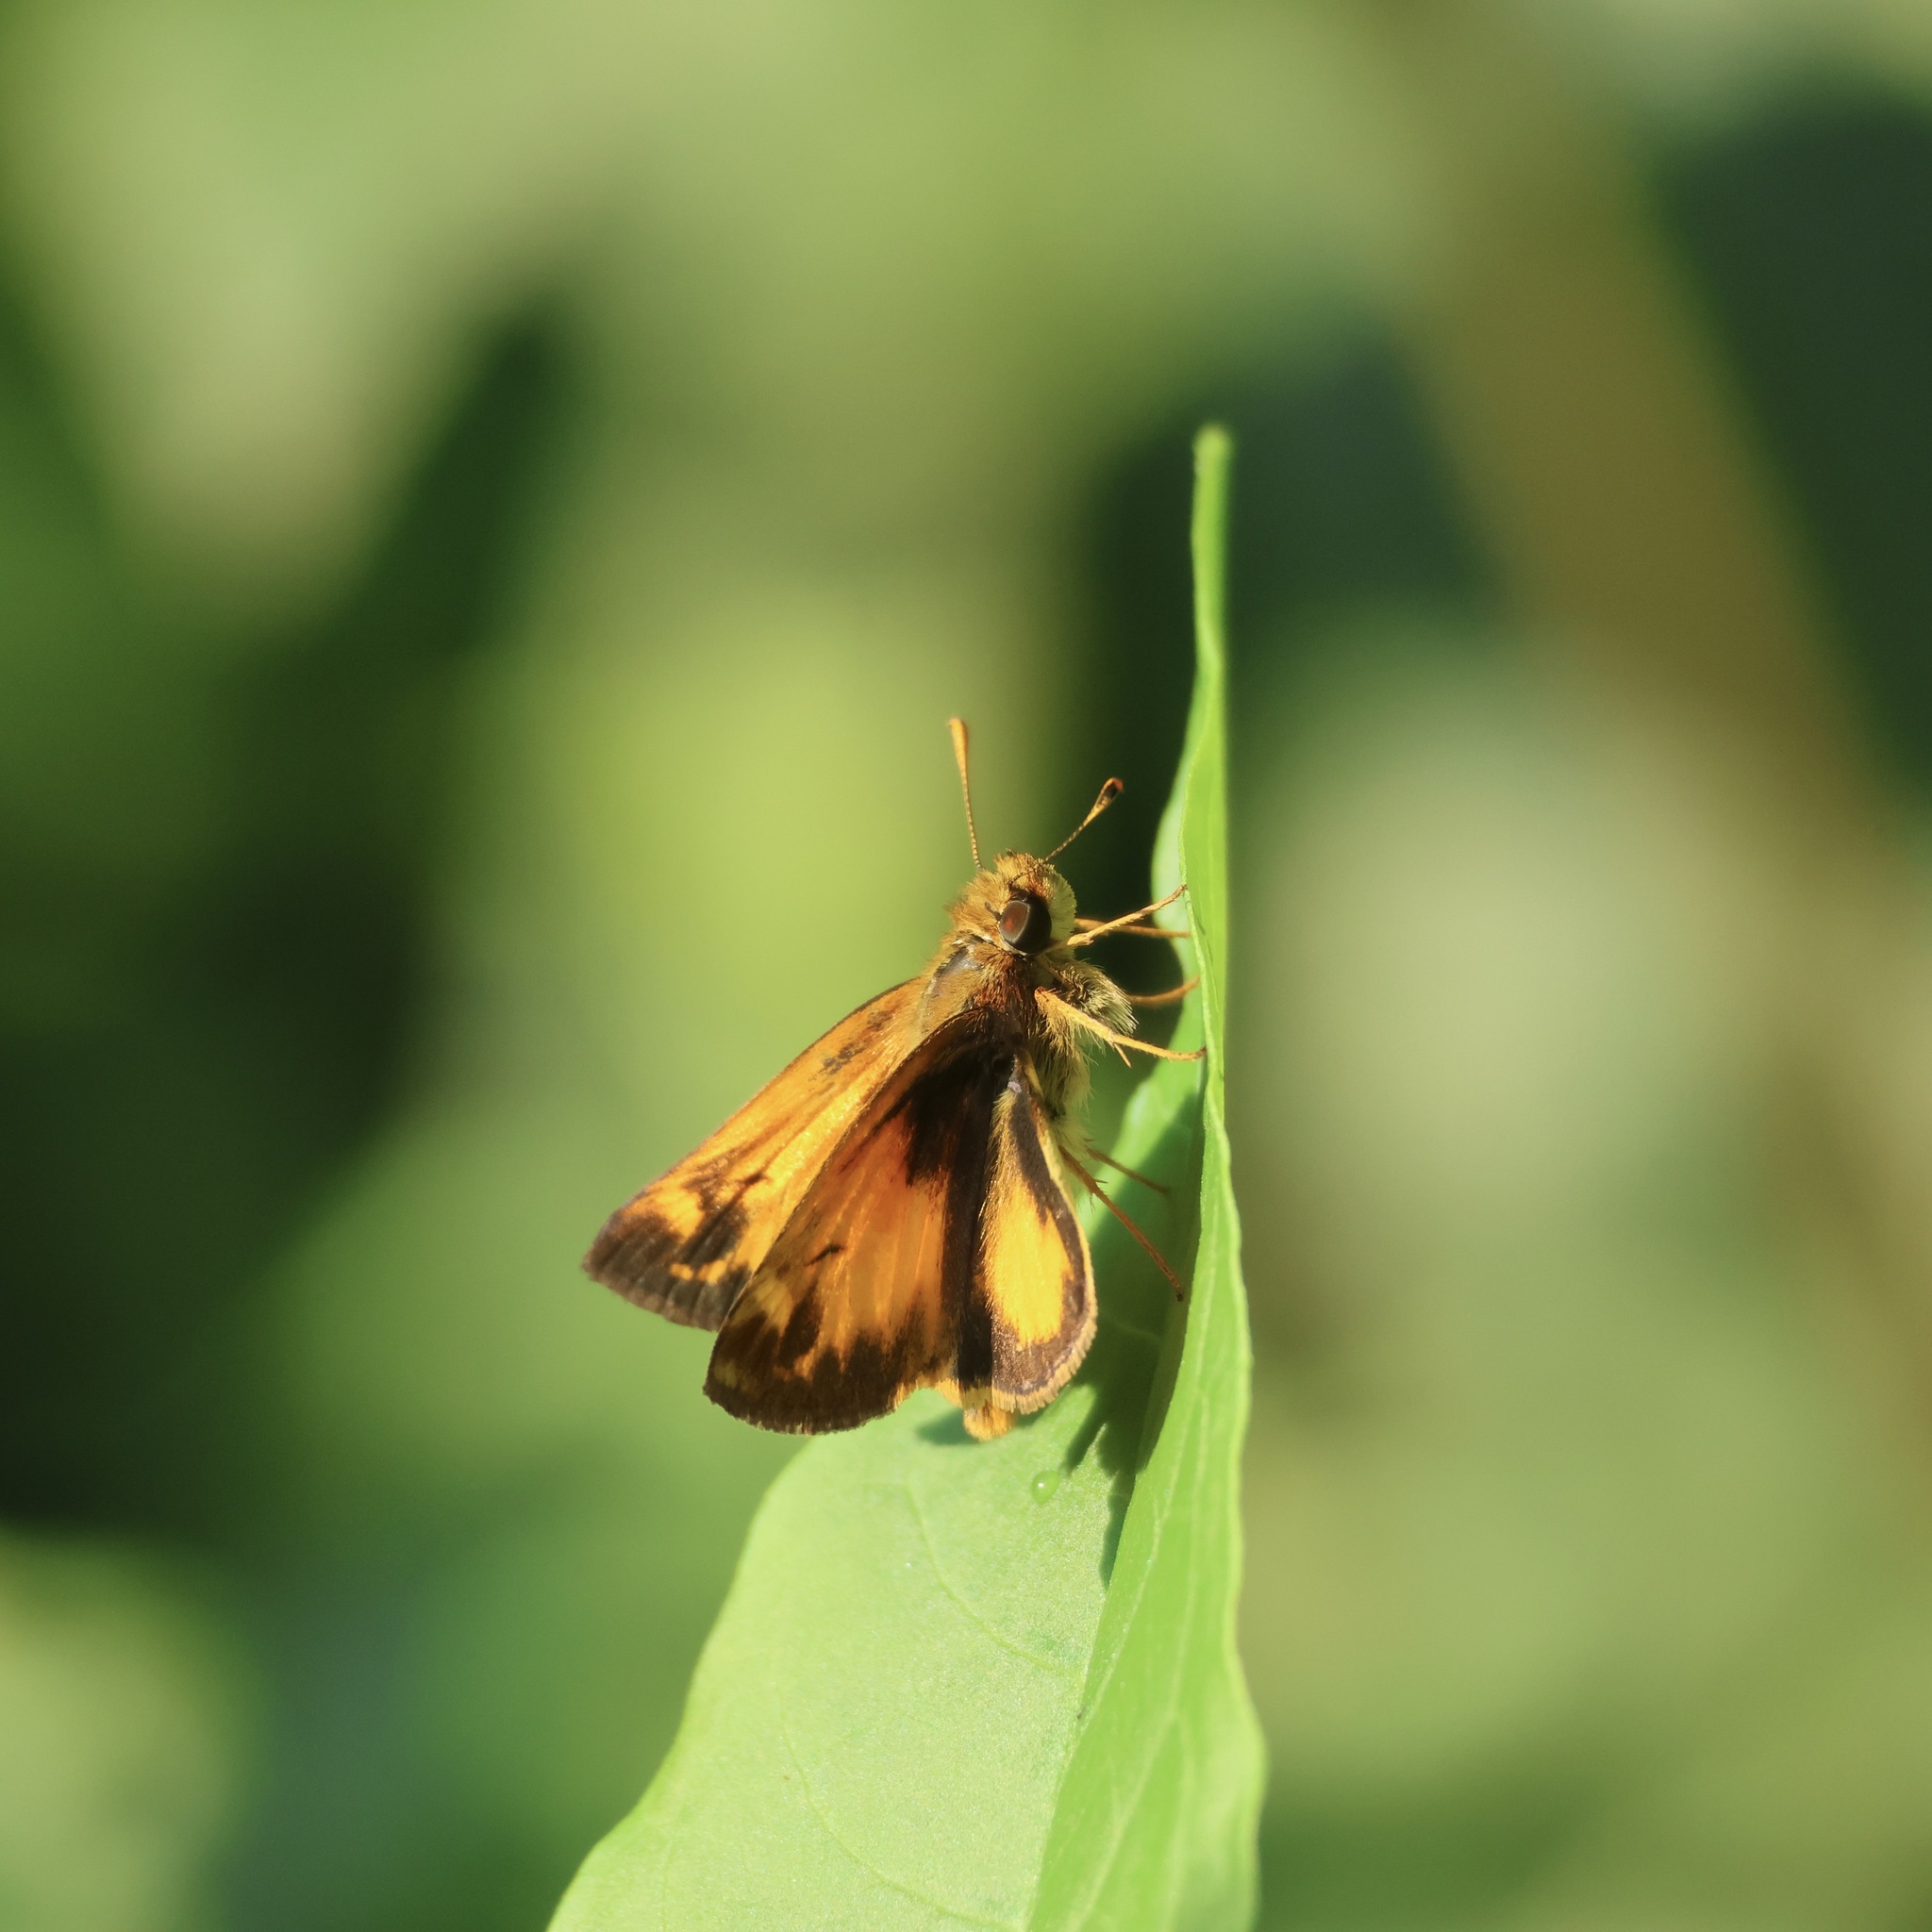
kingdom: Animalia
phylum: Arthropoda
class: Insecta
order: Lepidoptera
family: Hesperiidae
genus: Lon
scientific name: Lon zabulon
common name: Zabulon skipper
